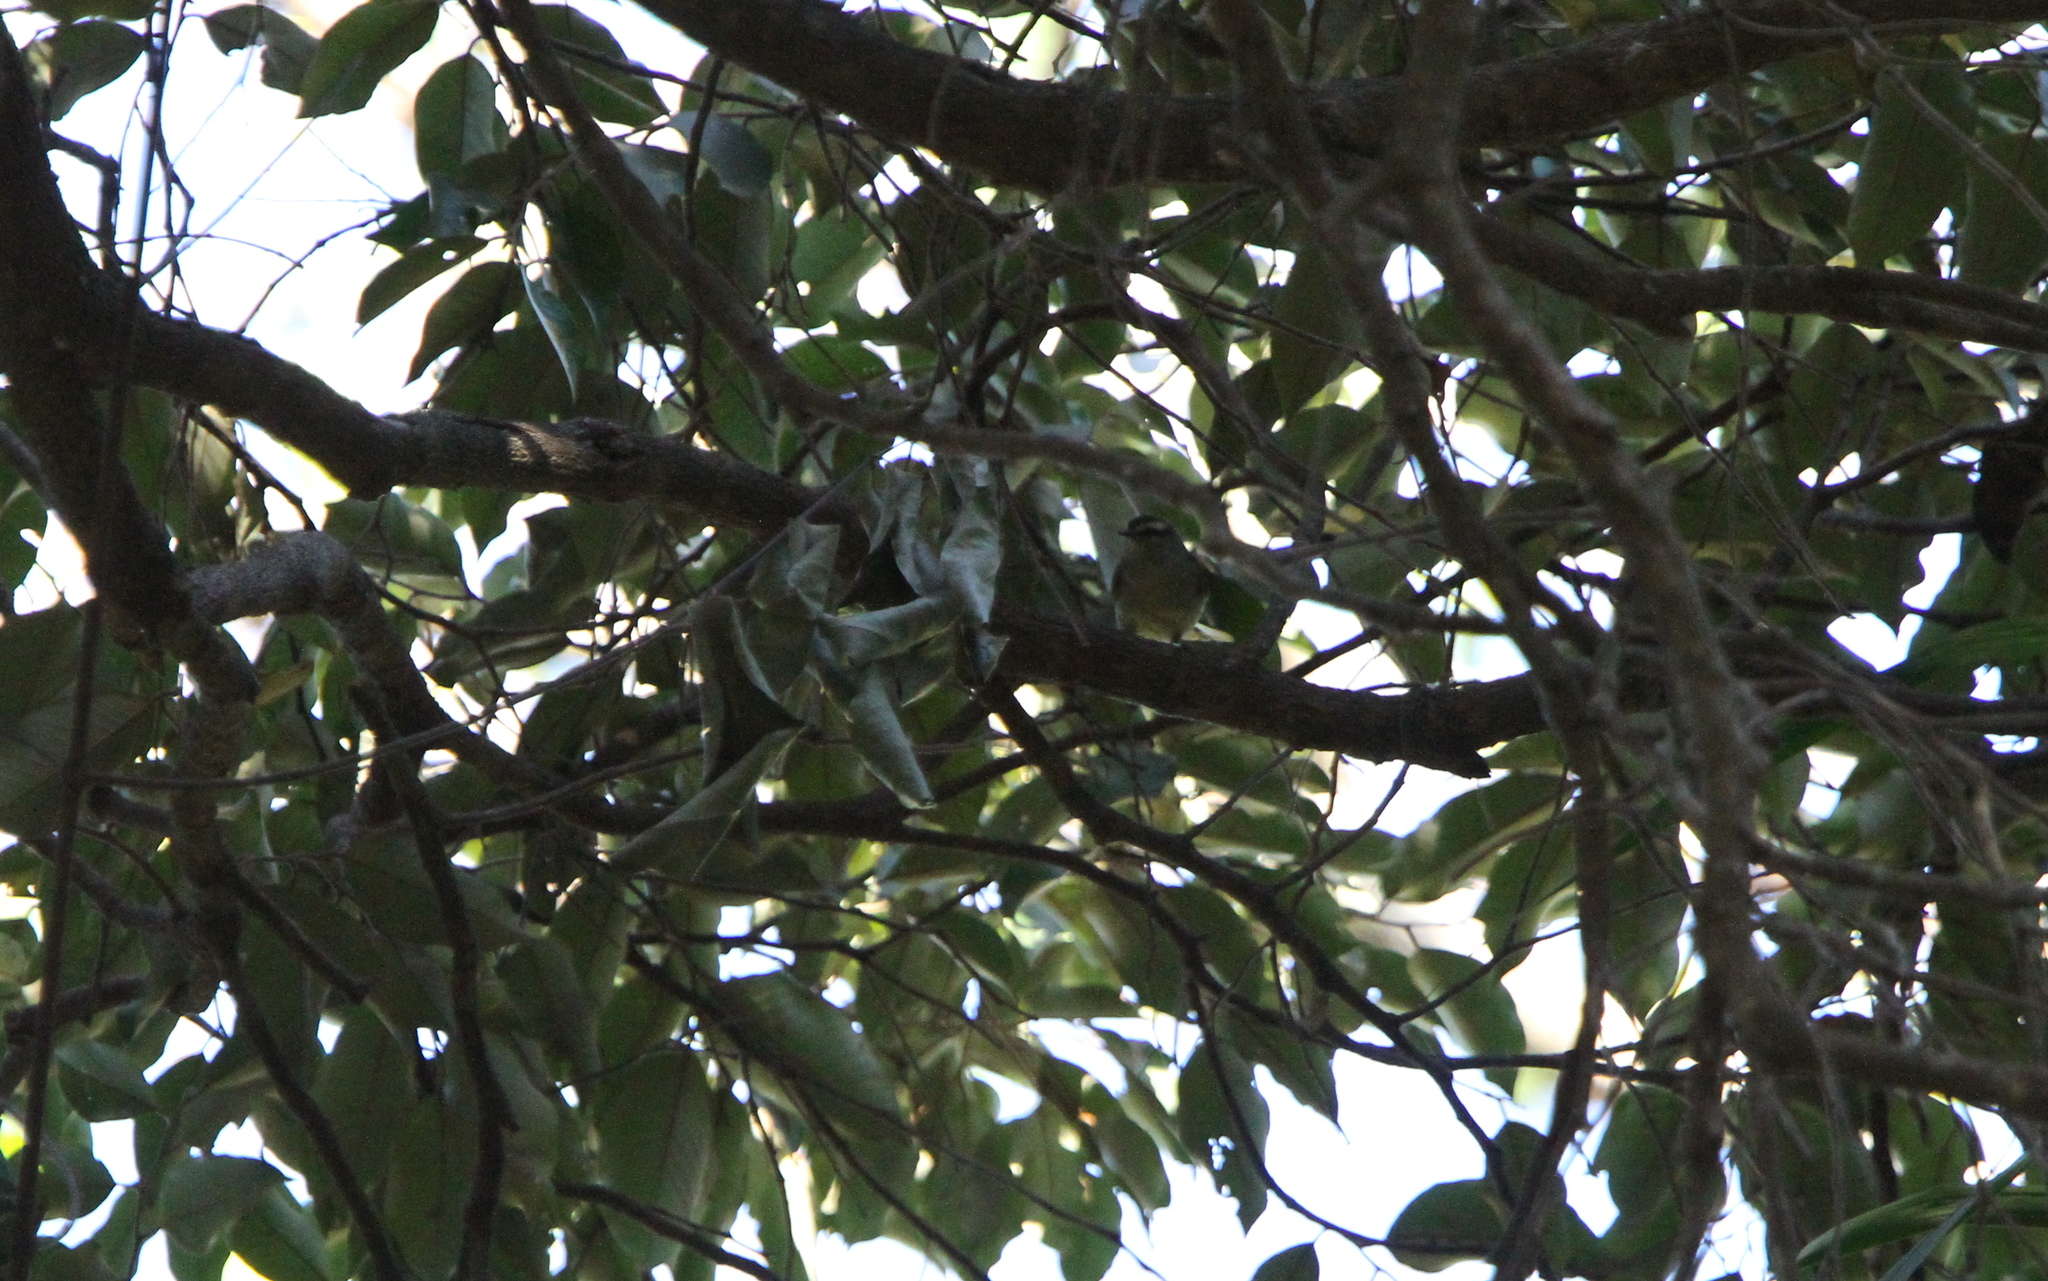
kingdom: Animalia
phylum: Chordata
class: Aves
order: Passeriformes
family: Cettiidae
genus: Hylia
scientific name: Hylia prasina
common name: Green hylia
